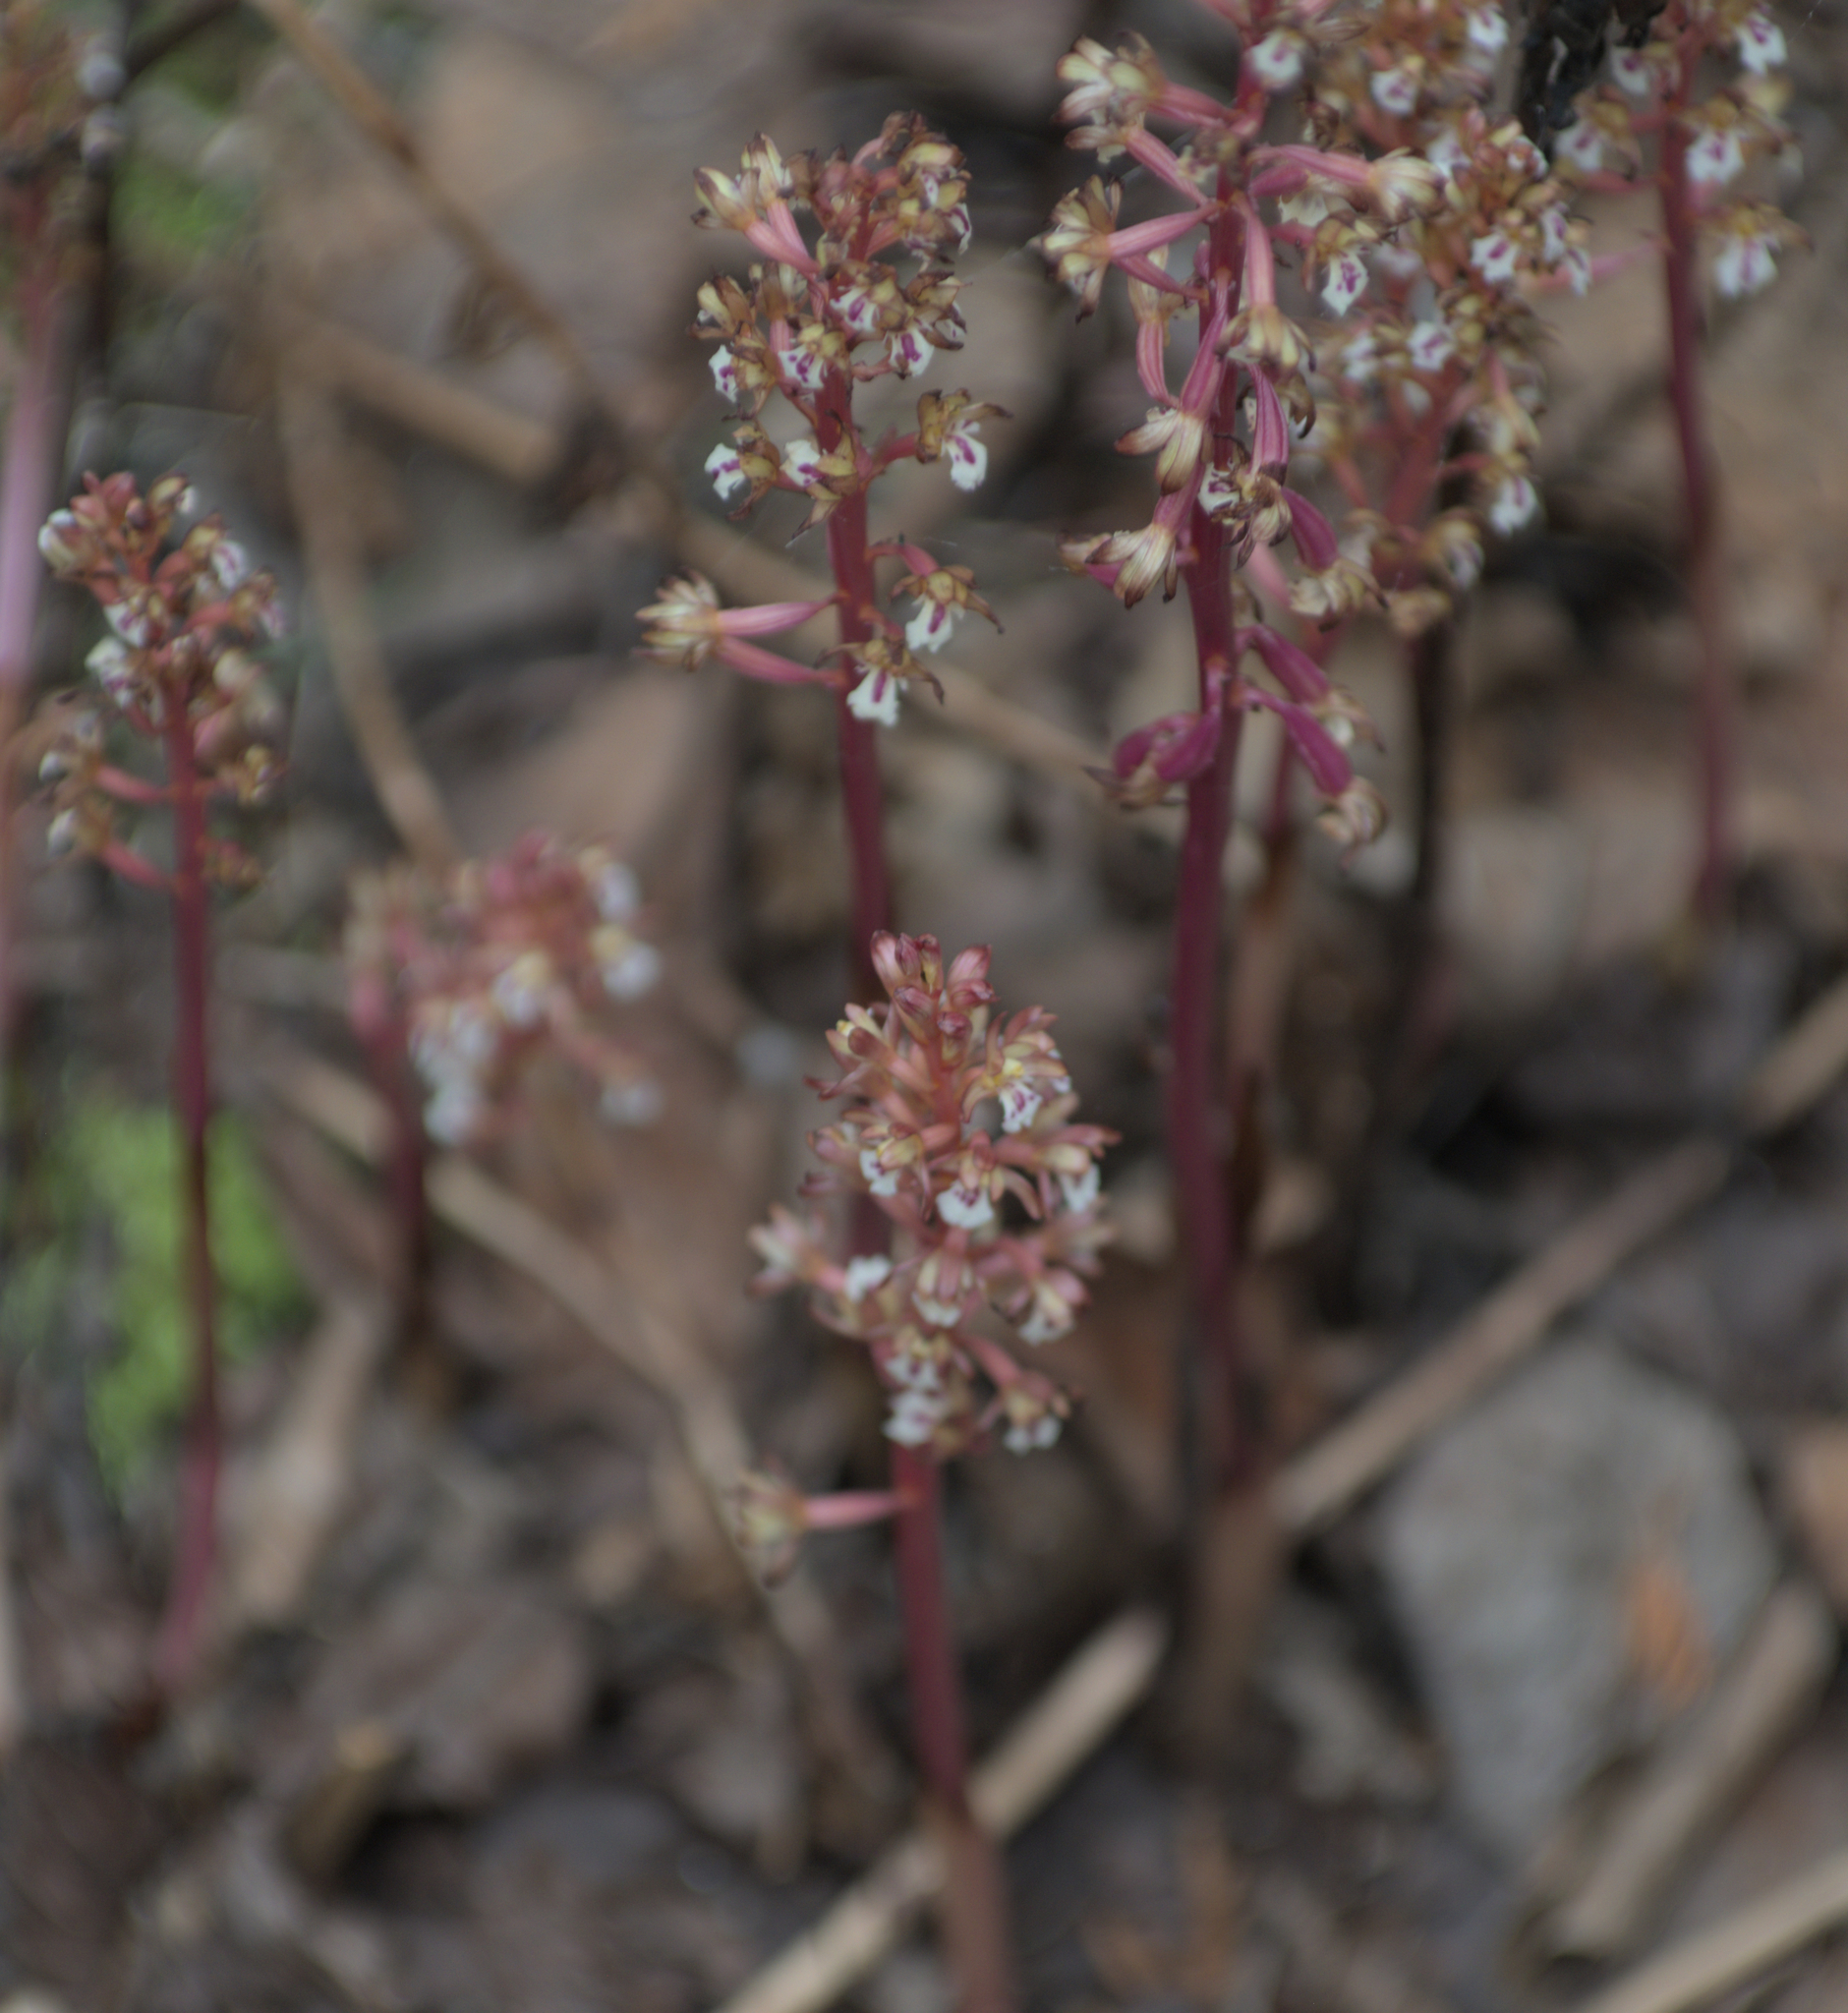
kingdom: Plantae
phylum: Tracheophyta
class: Liliopsida
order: Asparagales
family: Orchidaceae
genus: Corallorhiza
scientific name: Corallorhiza maculata
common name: Spotted coralroot
